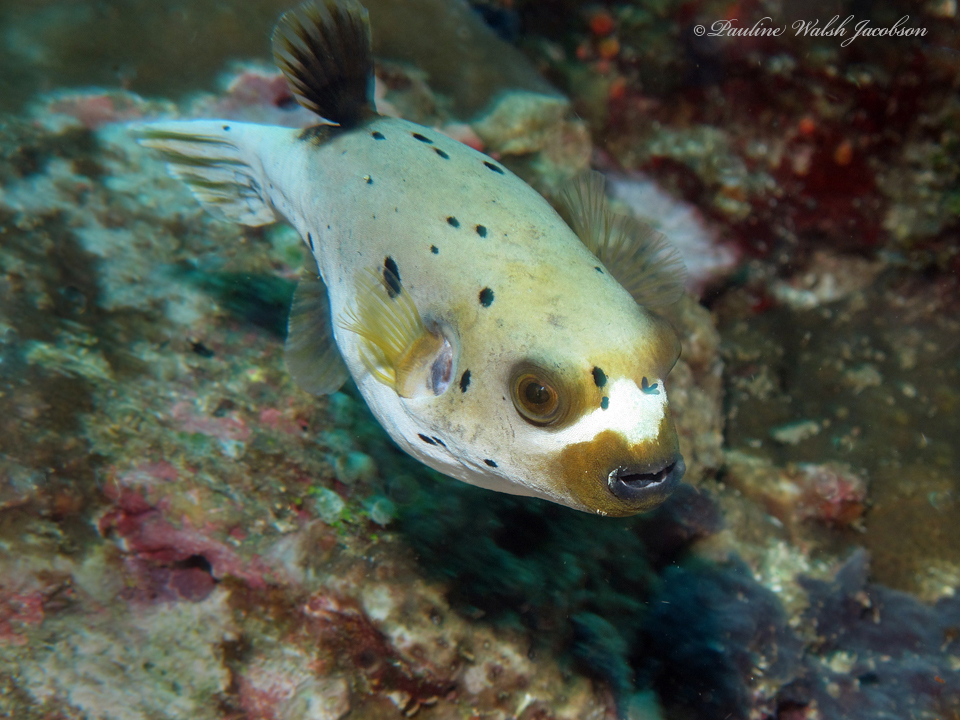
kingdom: Animalia
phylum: Chordata
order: Tetraodontiformes
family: Tetraodontidae
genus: Arothron
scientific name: Arothron nigropunctatus
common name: Black spotted blow fish
